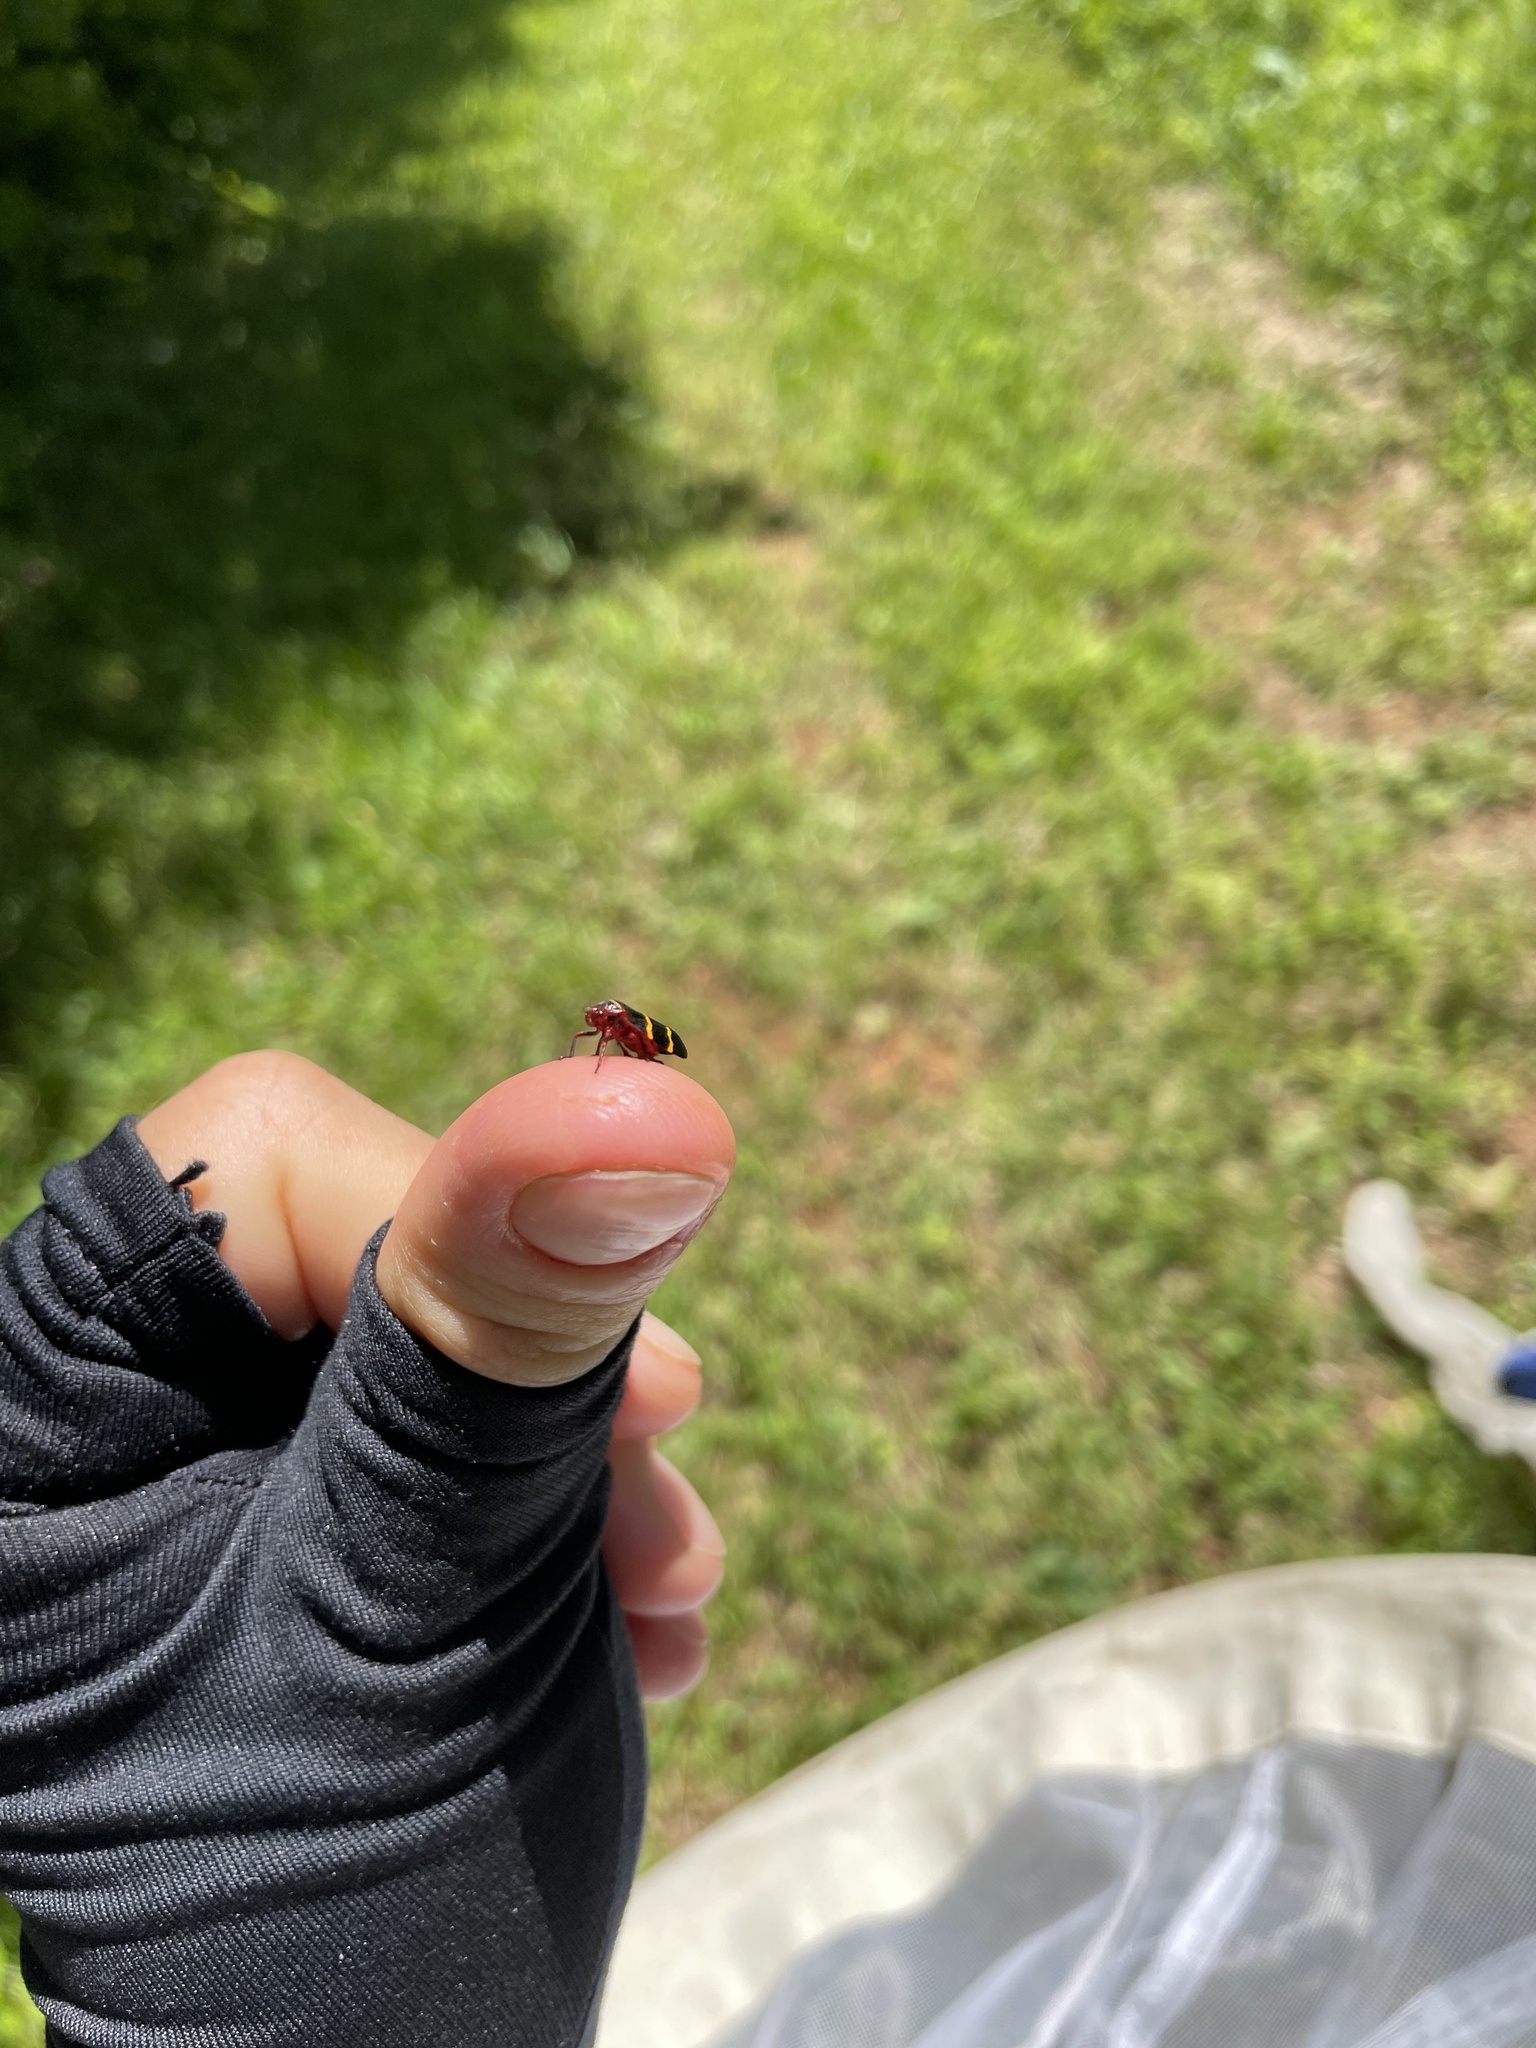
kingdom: Animalia
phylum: Arthropoda
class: Insecta
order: Hemiptera
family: Cercopidae
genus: Prosapia
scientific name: Prosapia bicincta
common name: Twolined spittlebug
